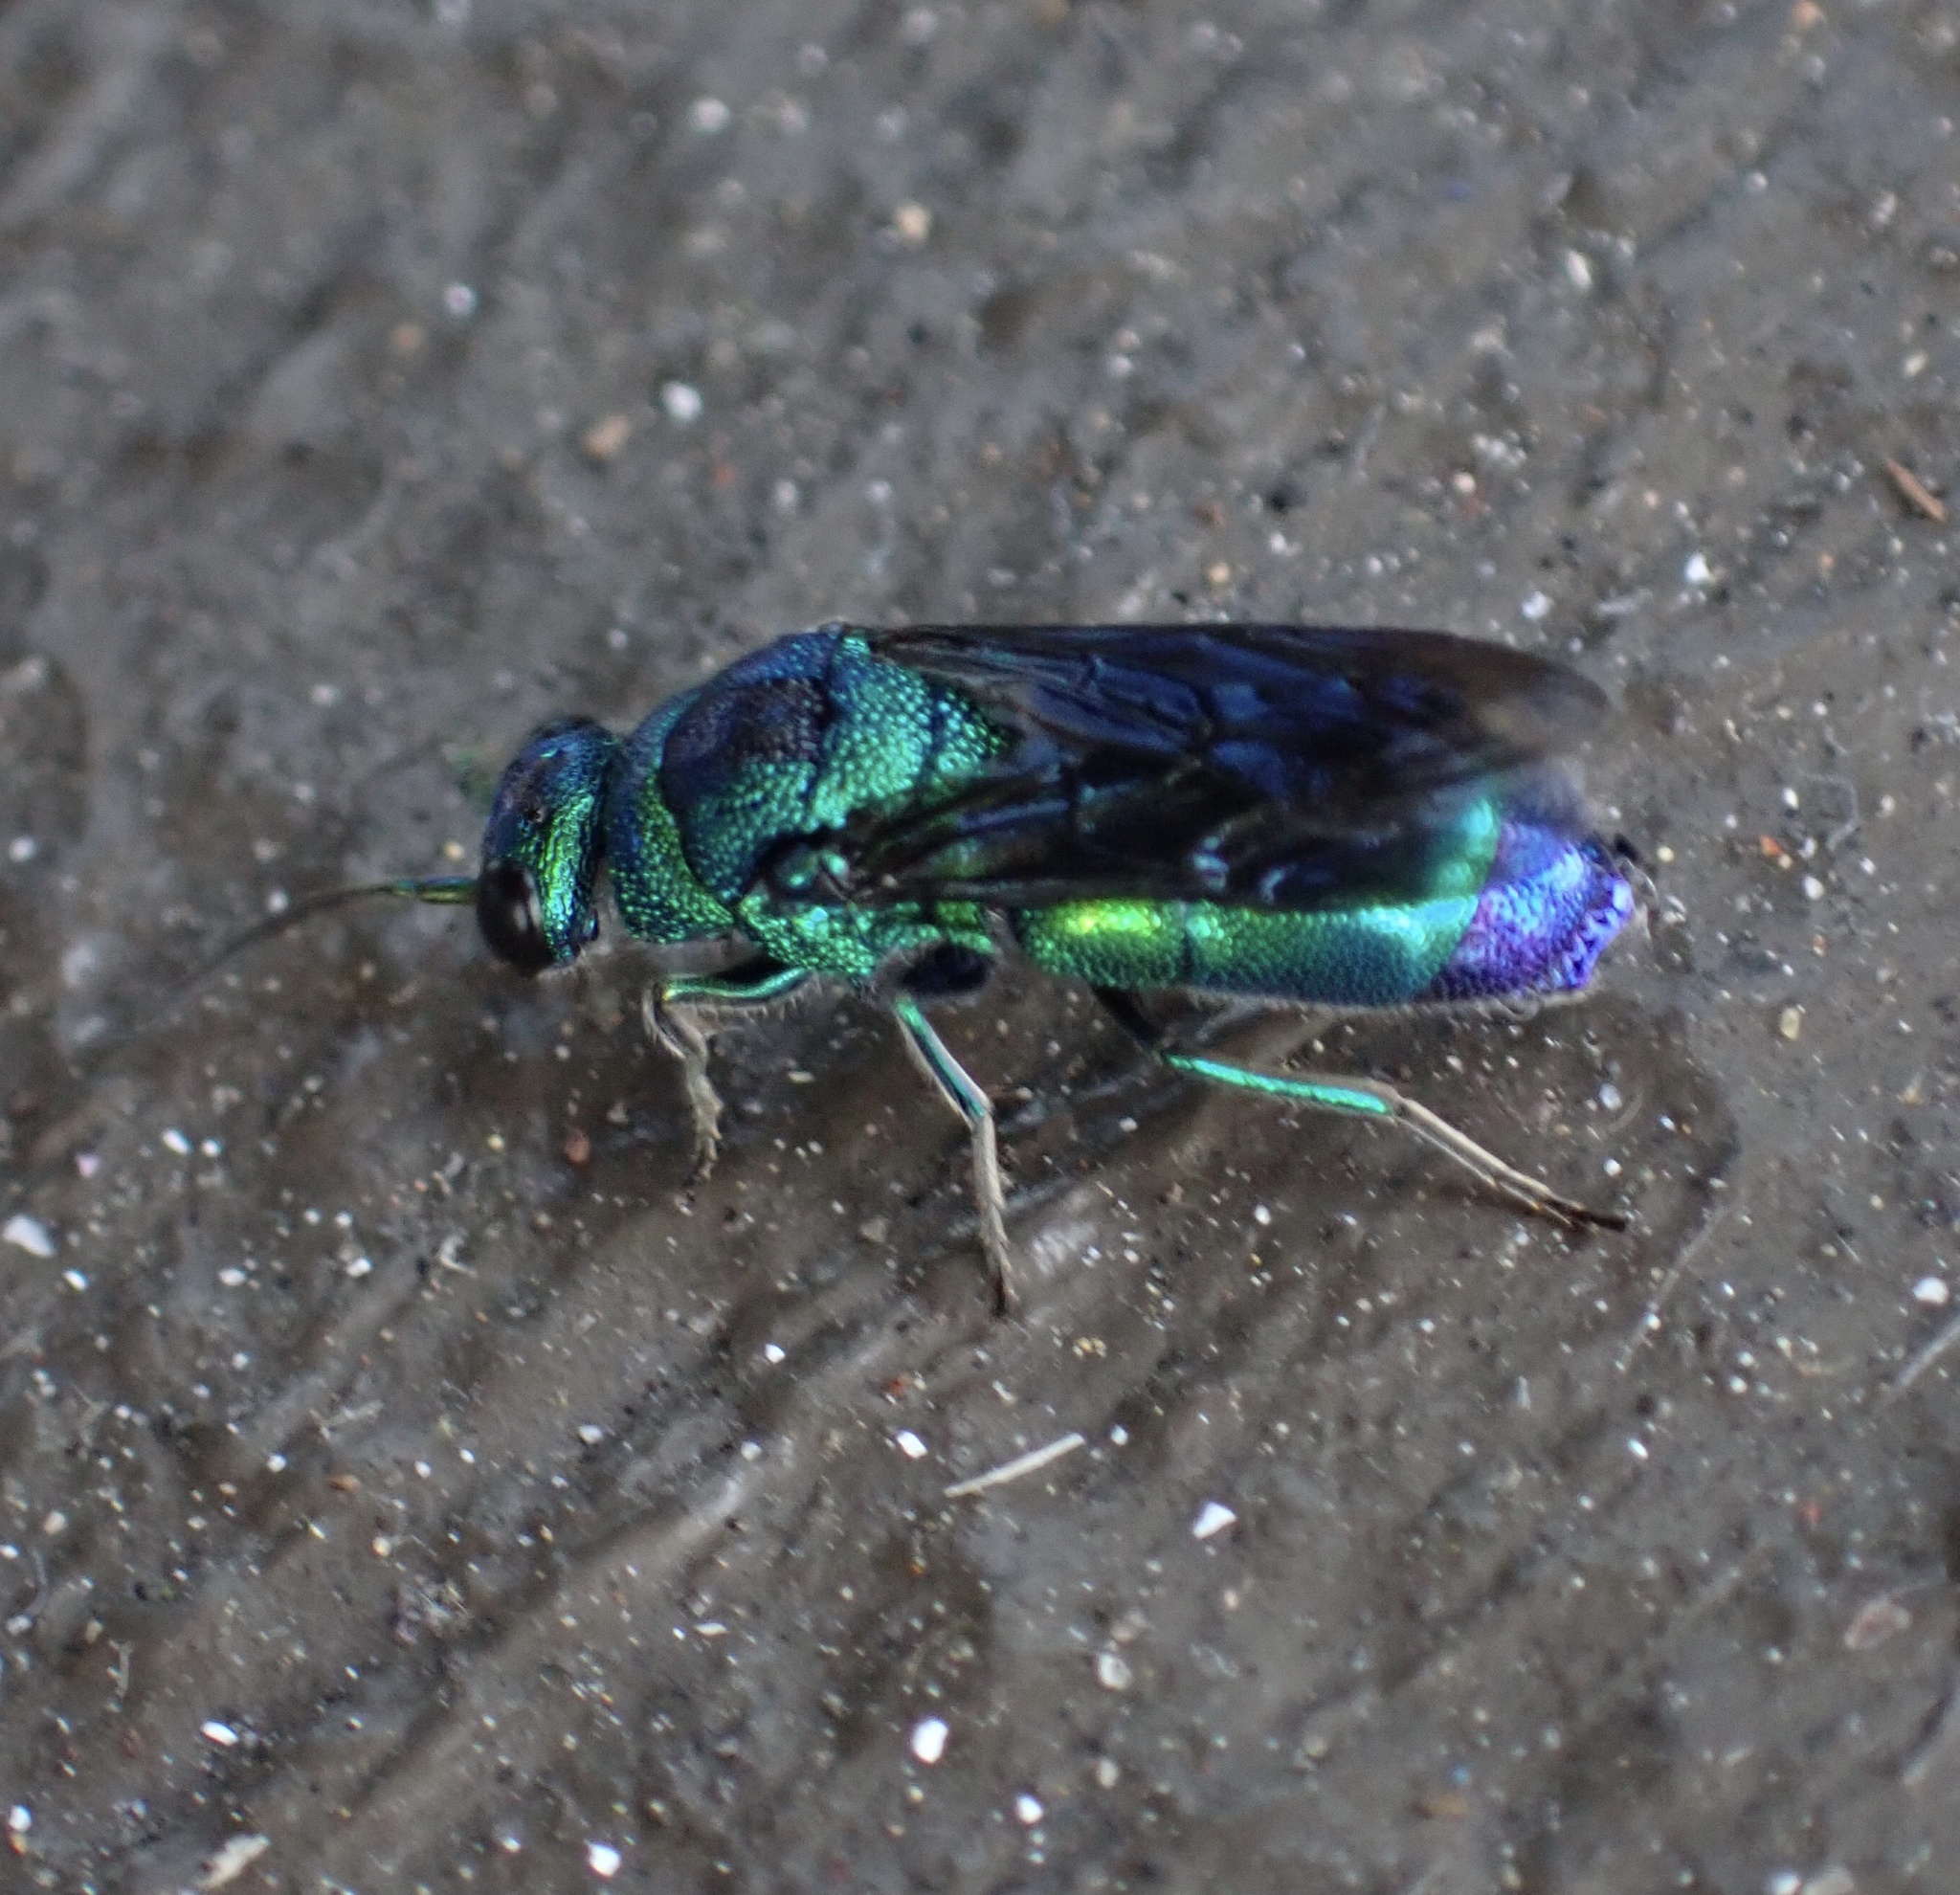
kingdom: Animalia
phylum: Arthropoda
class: Insecta
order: Hymenoptera
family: Chrysididae
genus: Chrysis
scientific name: Chrysis angolensis
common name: Cuckoo wasp
